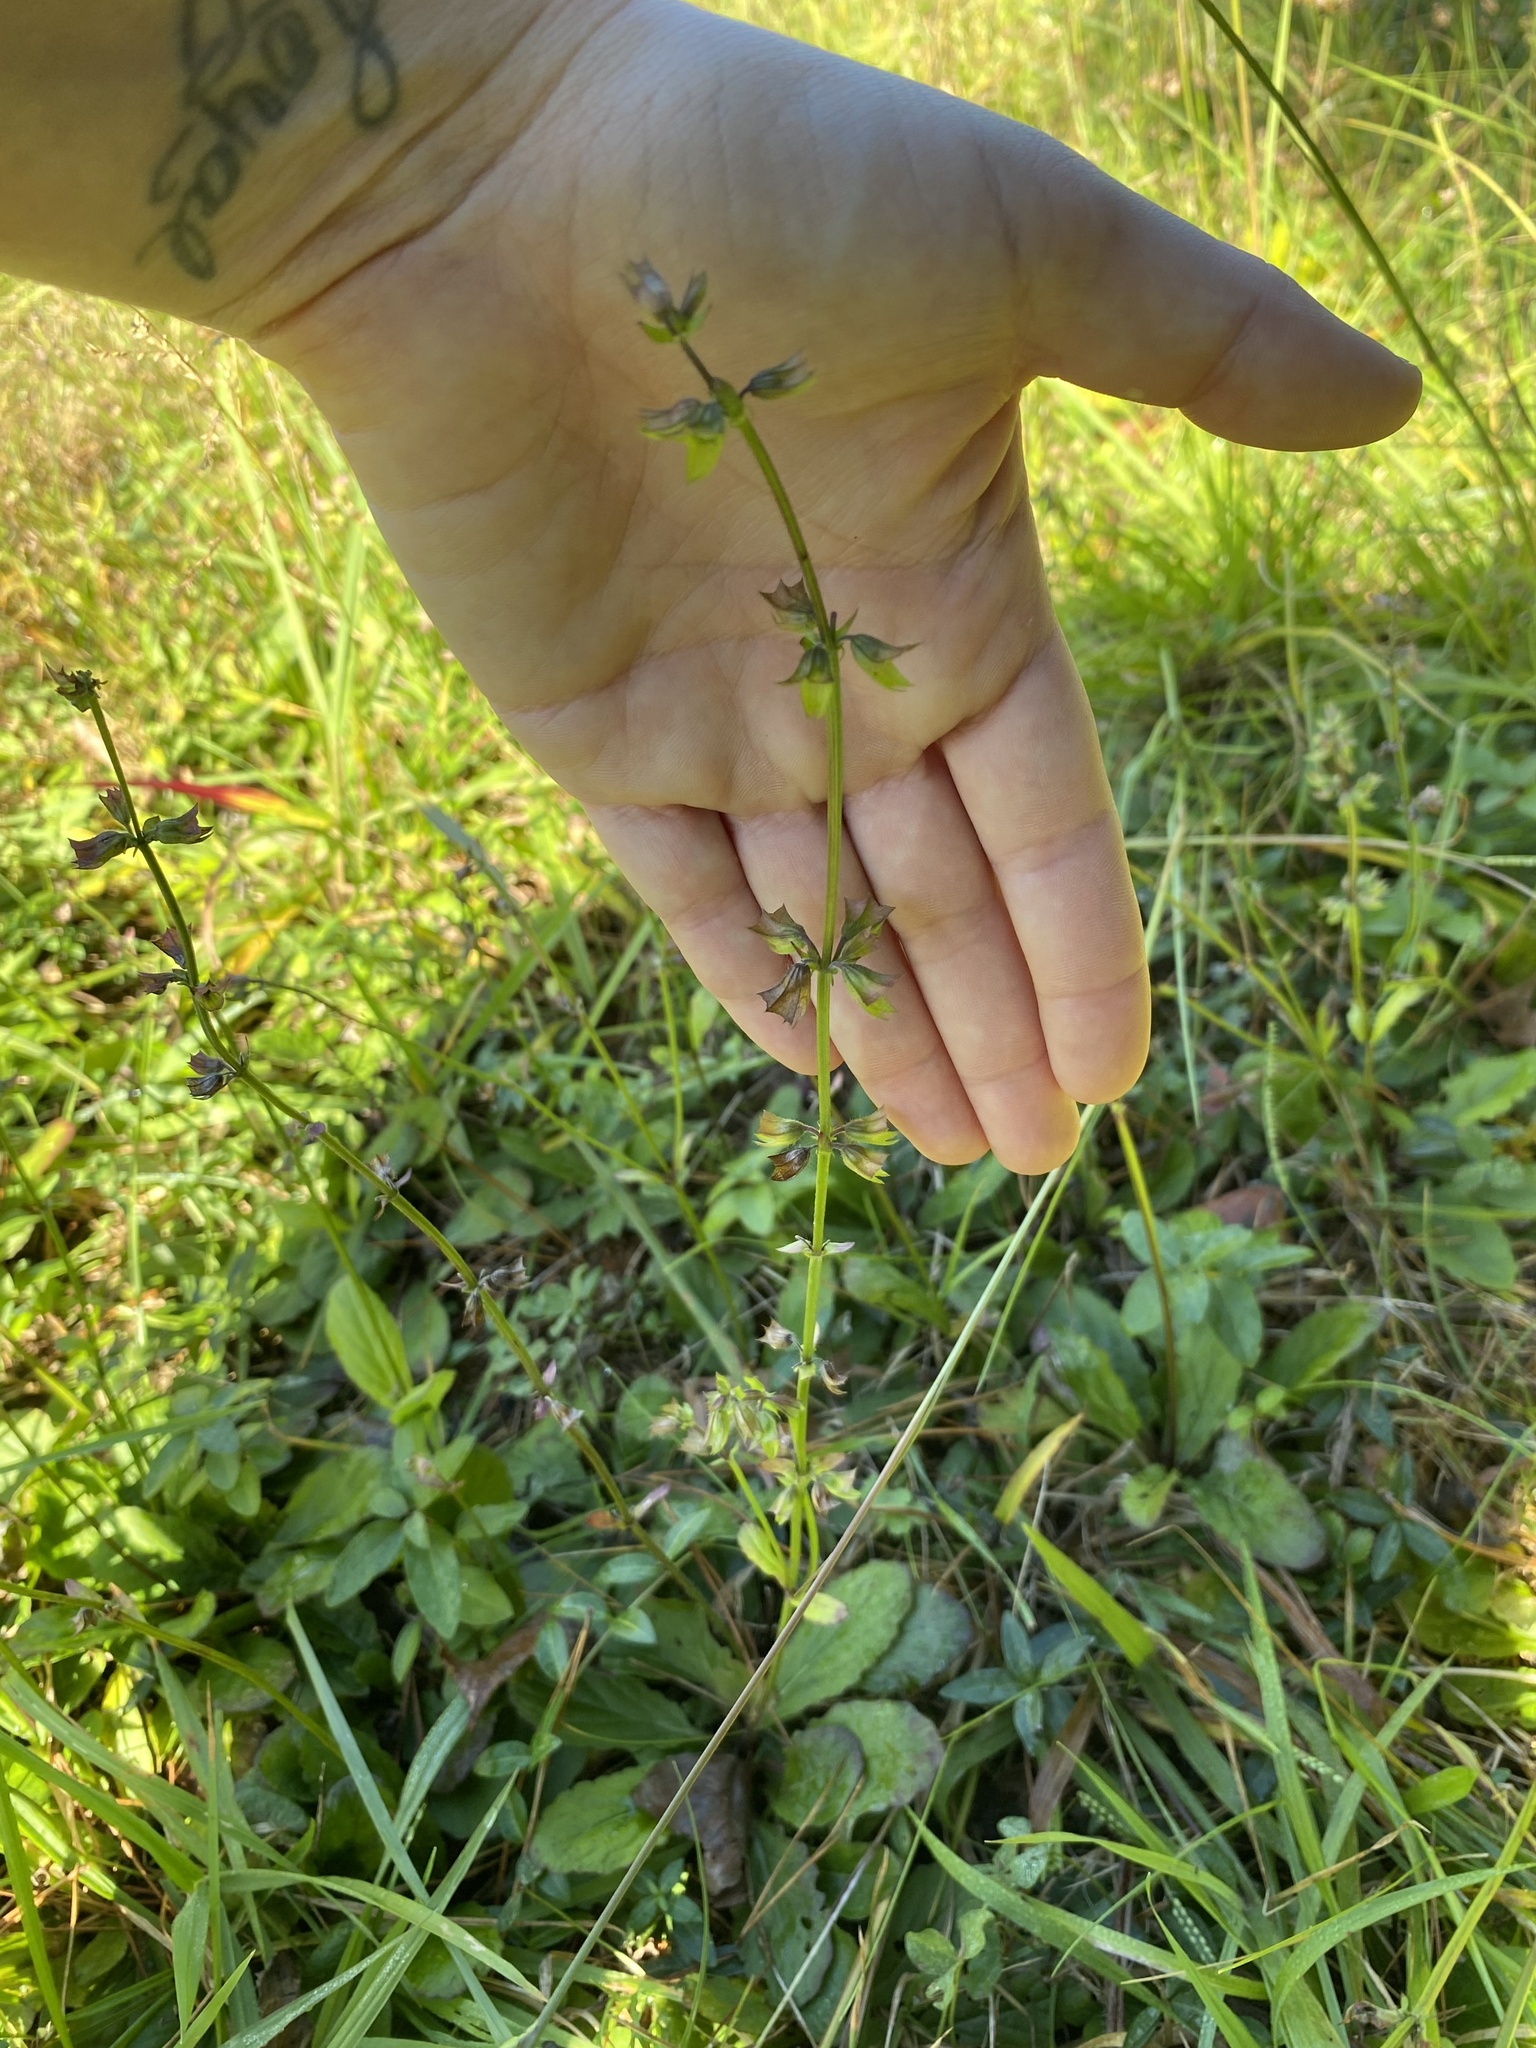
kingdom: Plantae
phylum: Tracheophyta
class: Magnoliopsida
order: Lamiales
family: Lamiaceae
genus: Salvia
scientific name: Salvia lyrata
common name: Cancerweed
